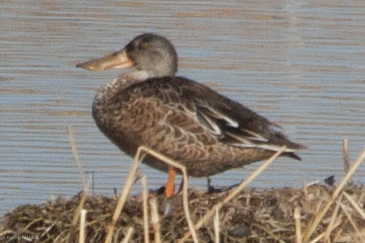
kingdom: Animalia
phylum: Chordata
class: Aves
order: Anseriformes
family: Anatidae
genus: Spatula
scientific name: Spatula clypeata
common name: Northern shoveler
